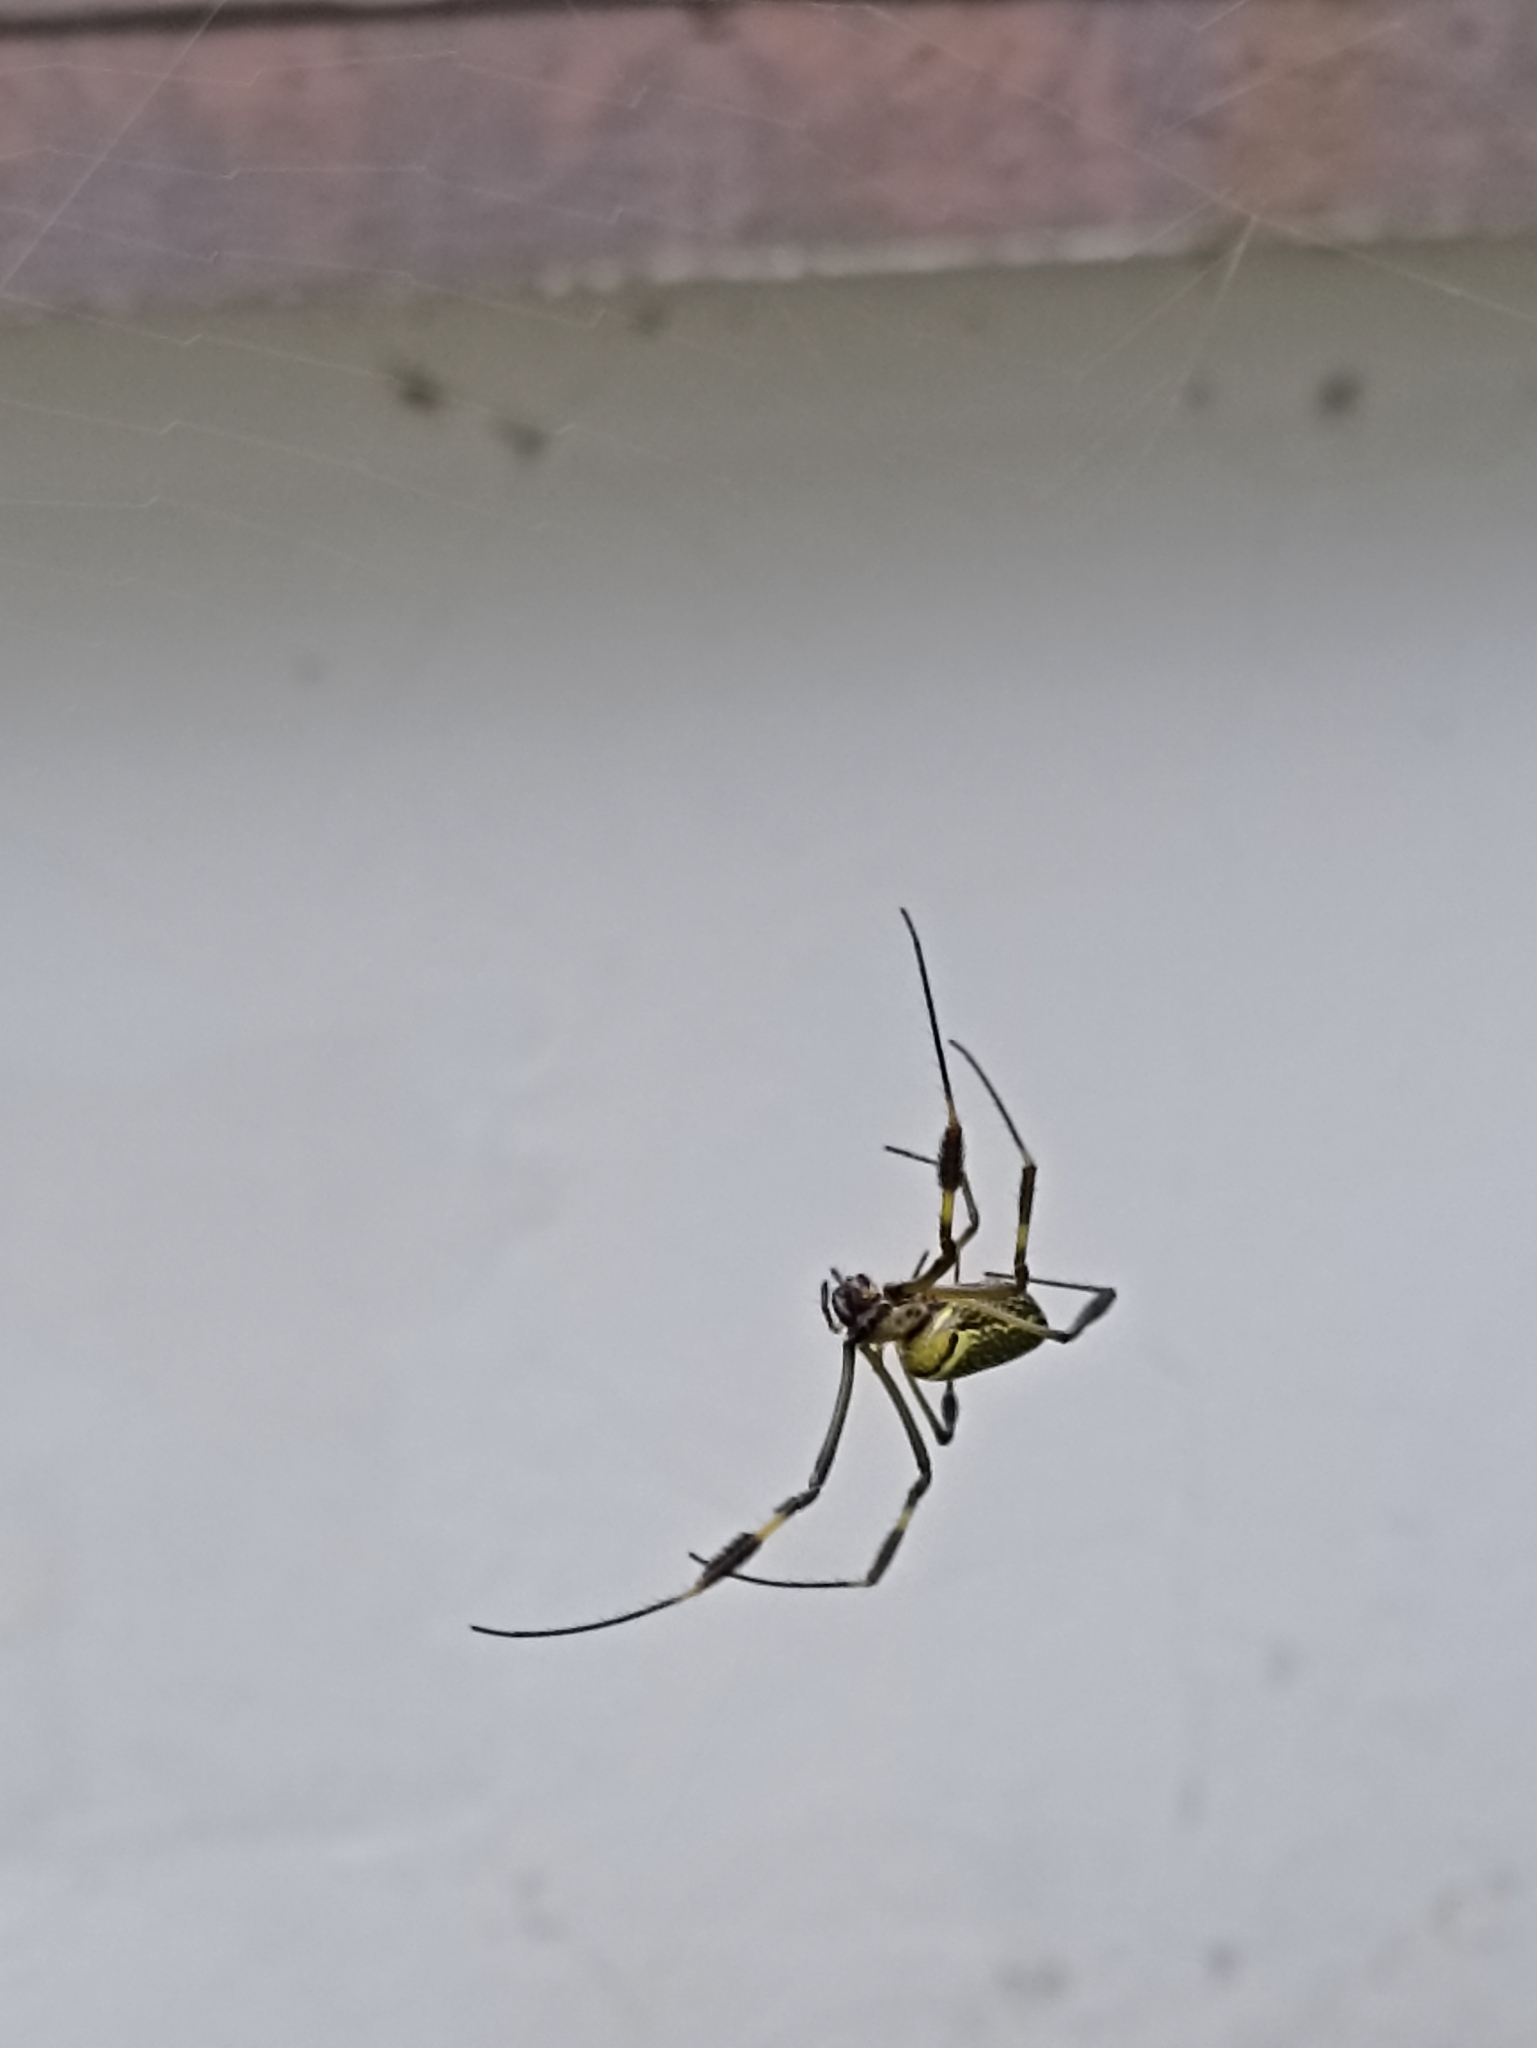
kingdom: Animalia
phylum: Arthropoda
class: Arachnida
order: Araneae
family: Araneidae
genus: Trichonephila
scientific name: Trichonephila clavipes
